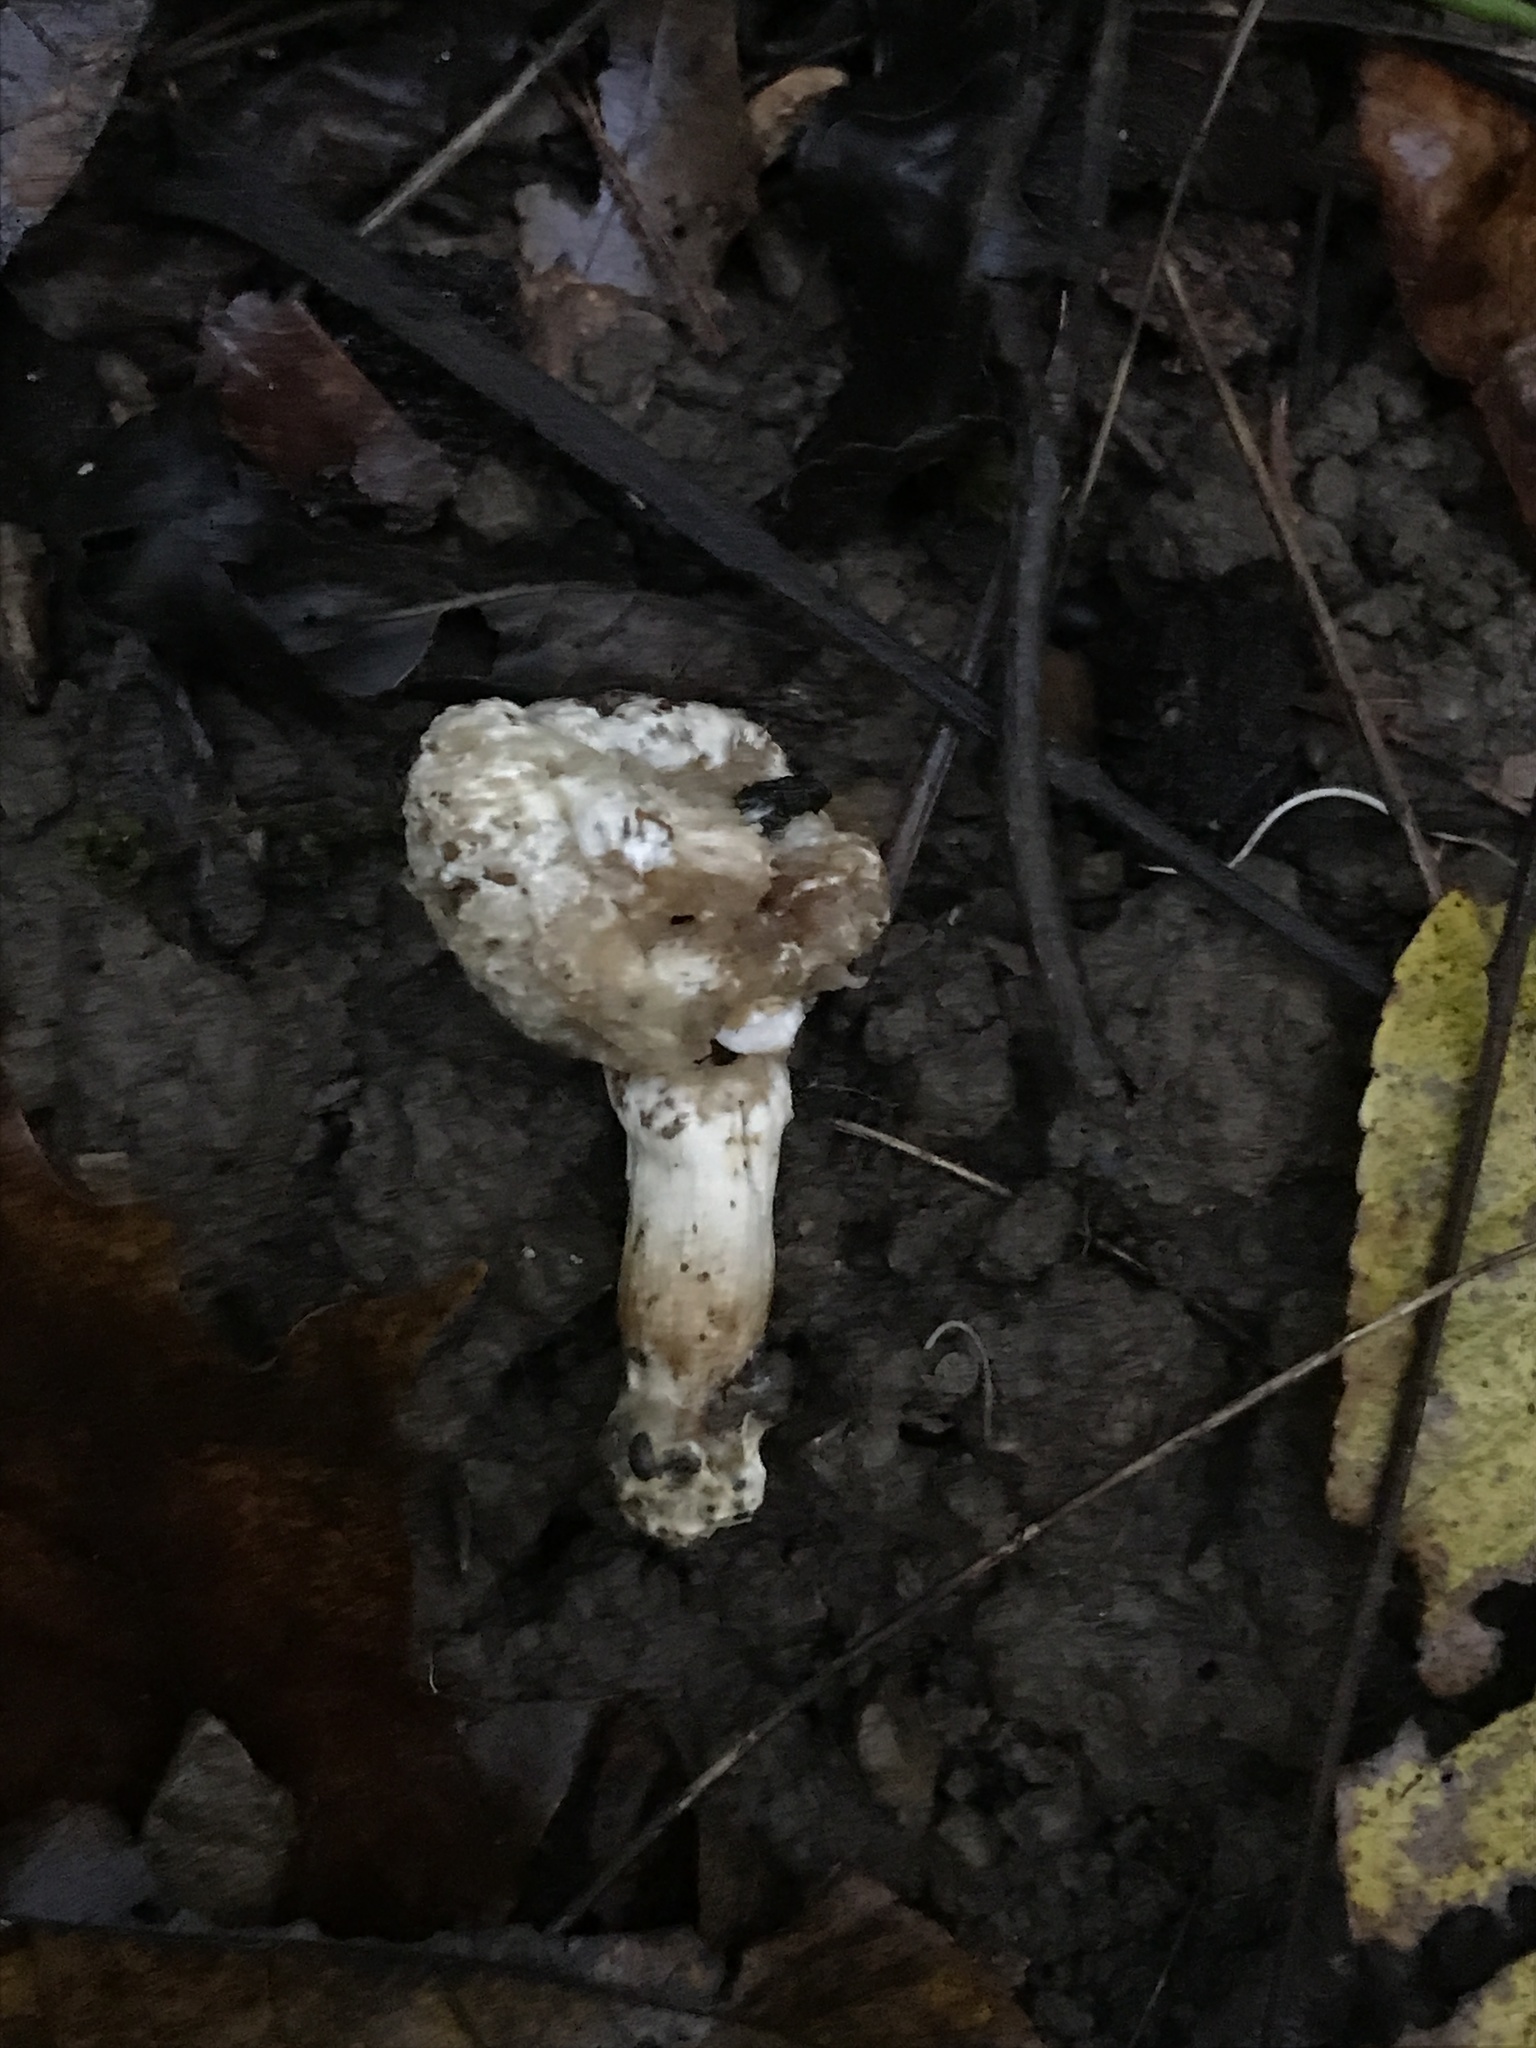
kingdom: Fungi
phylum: Ascomycota
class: Sordariomycetes
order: Hypocreales
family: Hypocreaceae
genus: Hypomyces
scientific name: Hypomyces chrysospermus
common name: Bolete mould
